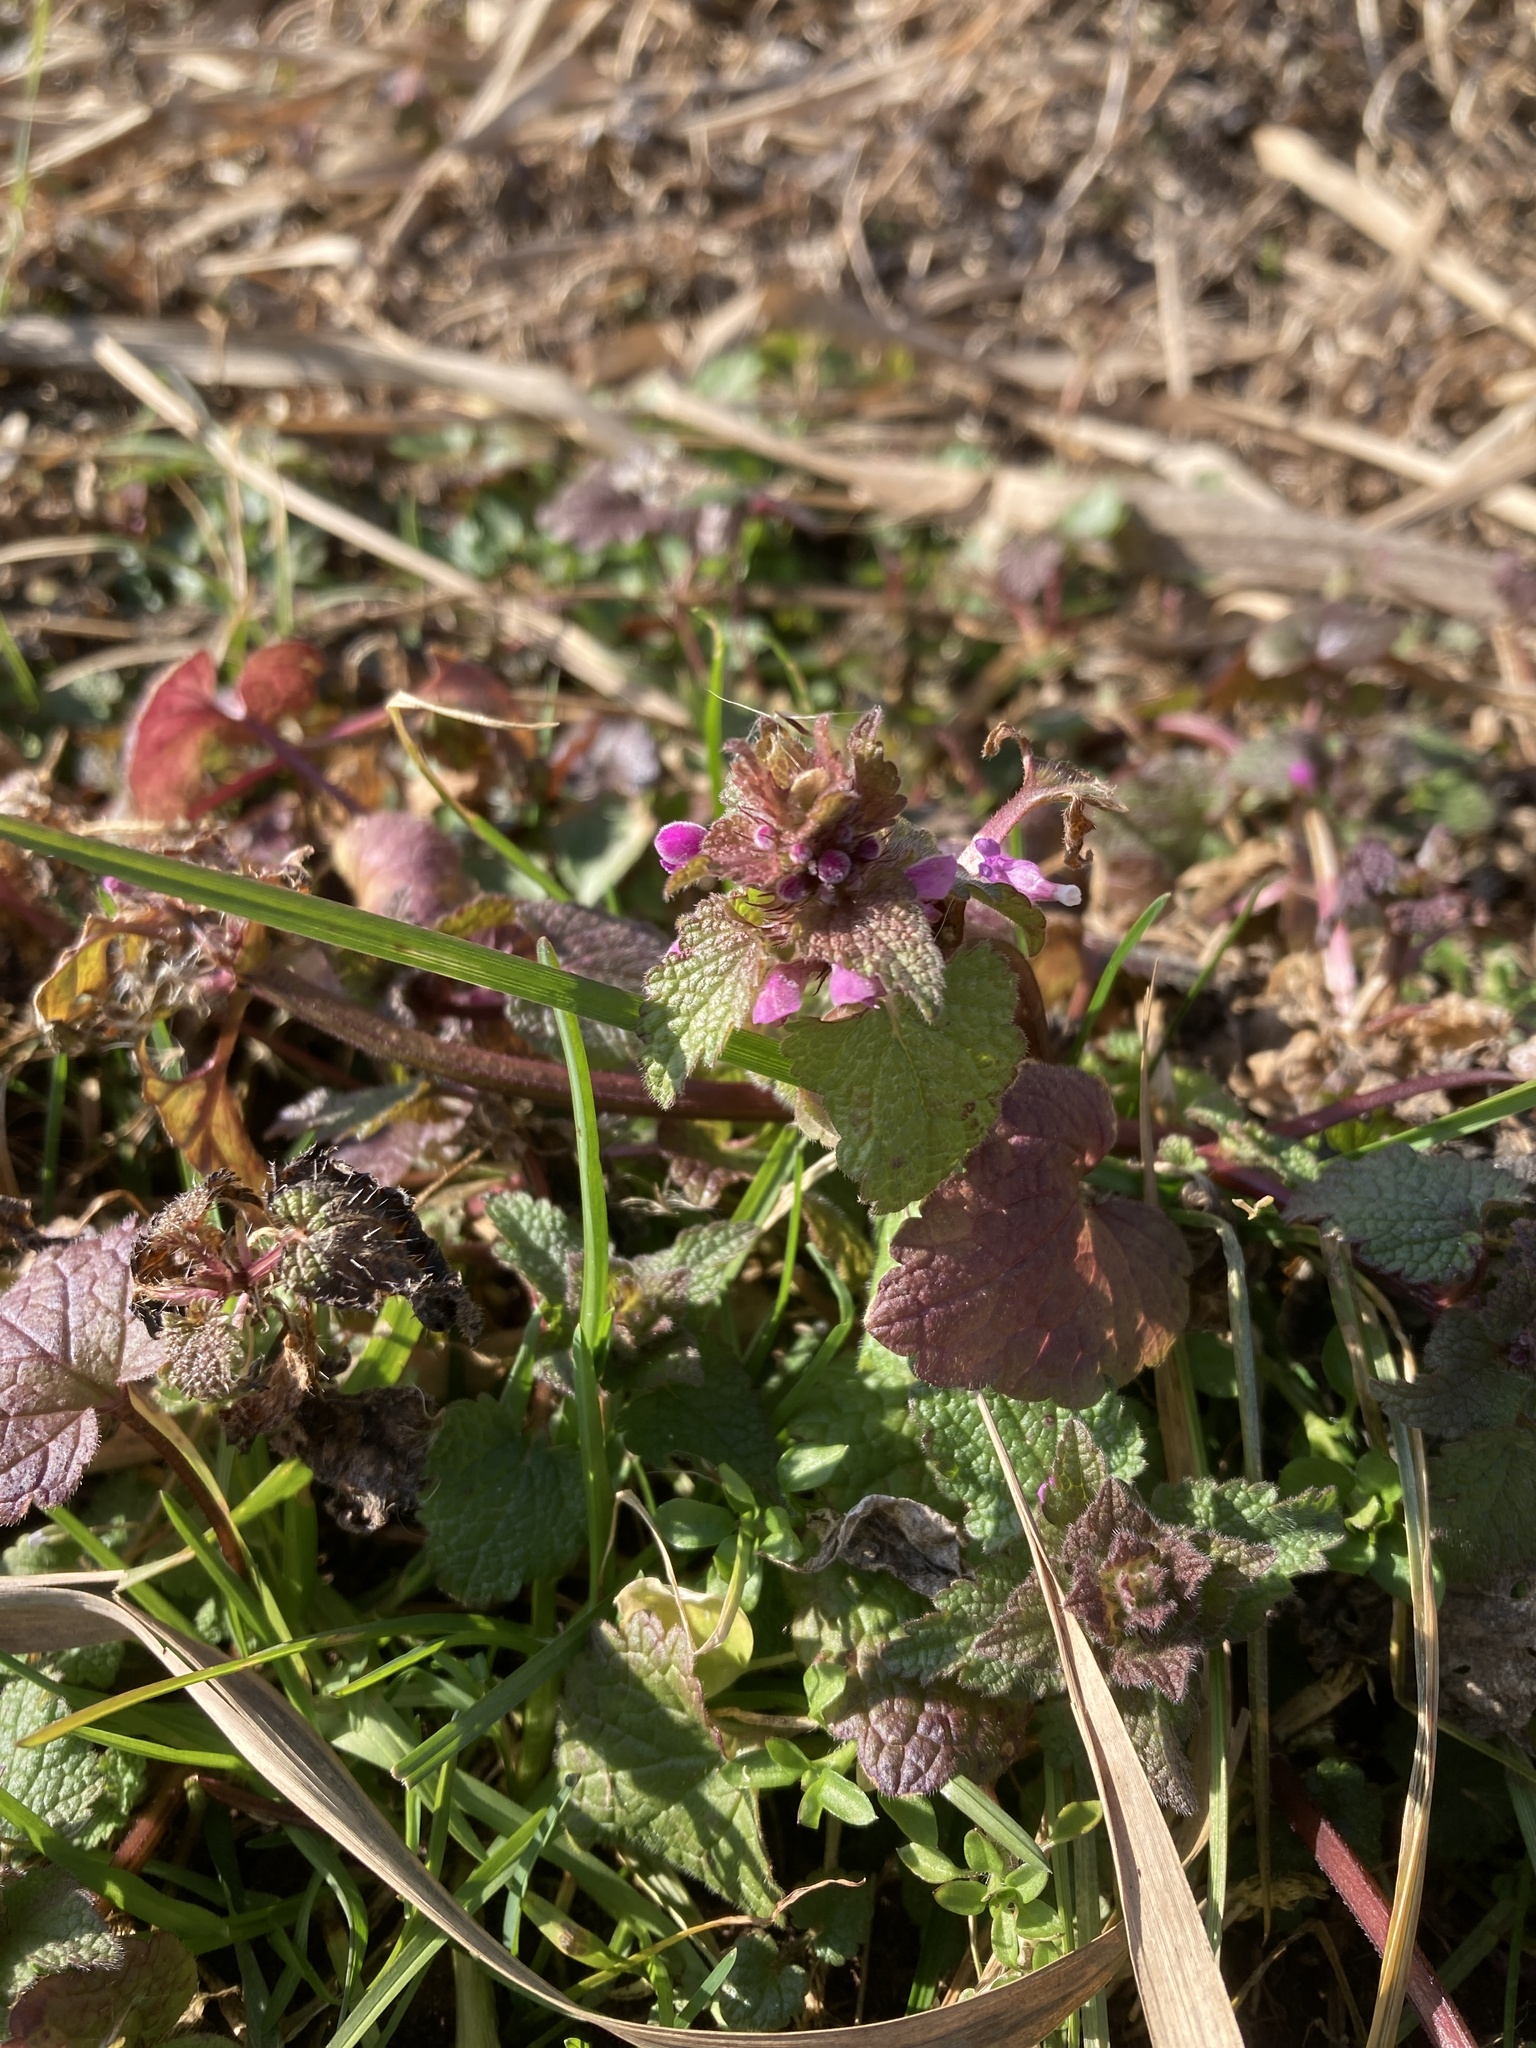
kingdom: Plantae
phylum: Tracheophyta
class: Magnoliopsida
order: Lamiales
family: Lamiaceae
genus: Lamium
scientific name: Lamium purpureum
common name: Red dead-nettle
